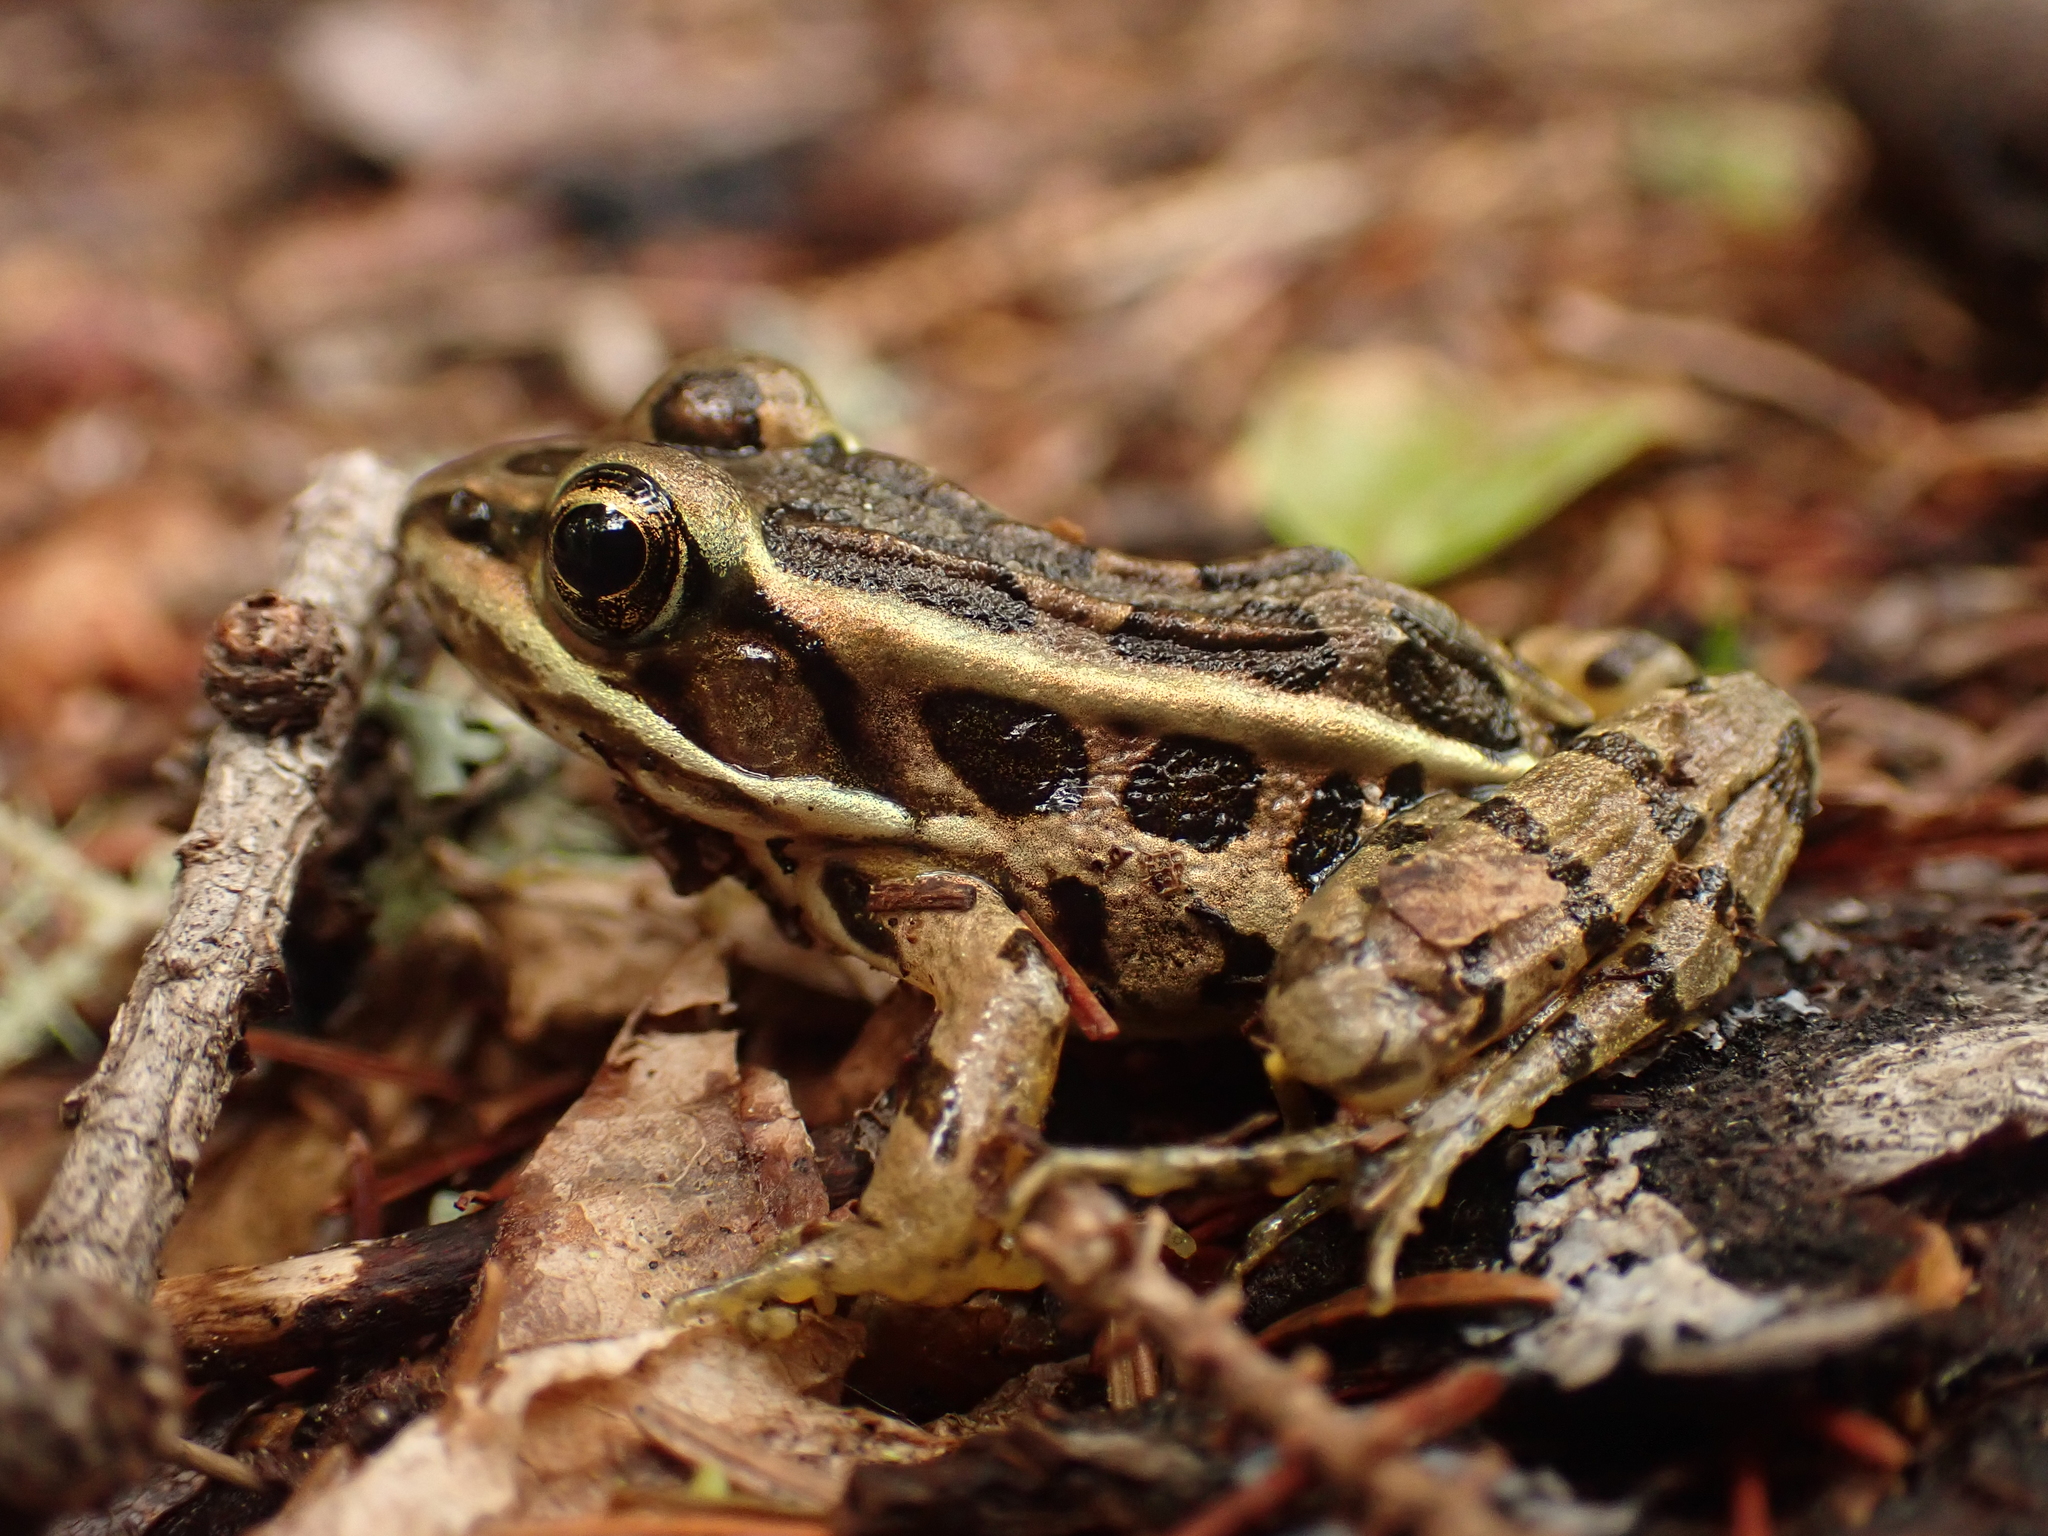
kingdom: Animalia
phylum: Chordata
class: Amphibia
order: Anura
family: Ranidae
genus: Lithobates
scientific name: Lithobates palustris
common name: Pickerel frog
